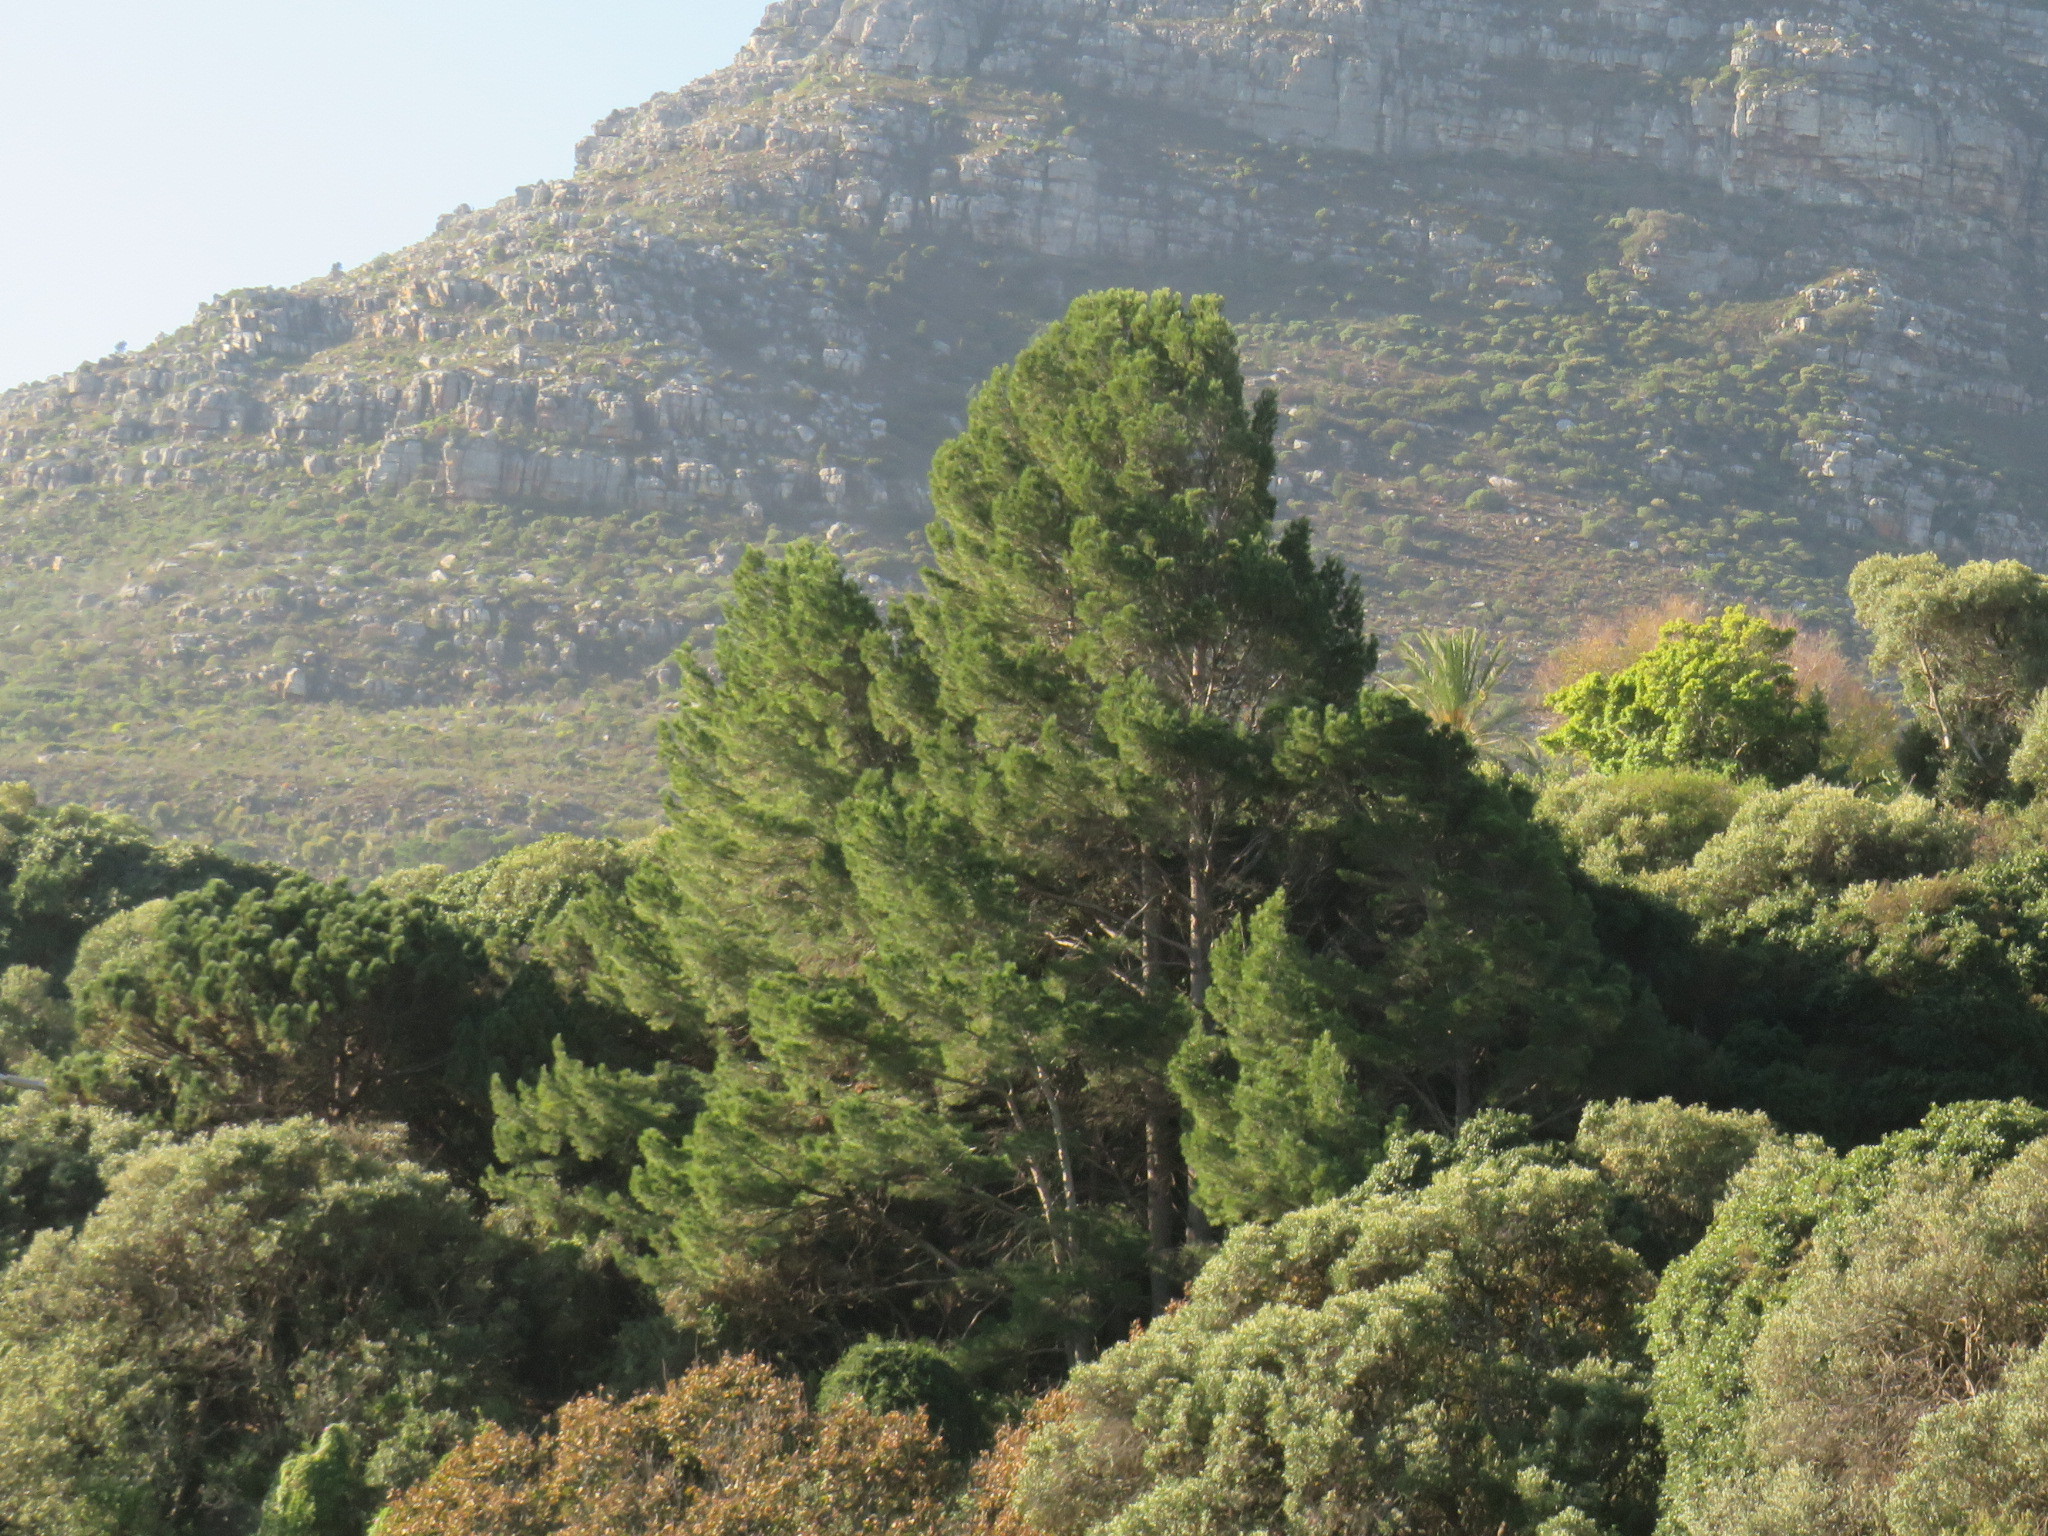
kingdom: Plantae
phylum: Tracheophyta
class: Pinopsida
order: Pinales
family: Pinaceae
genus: Pinus
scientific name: Pinus halepensis
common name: Aleppo pine
